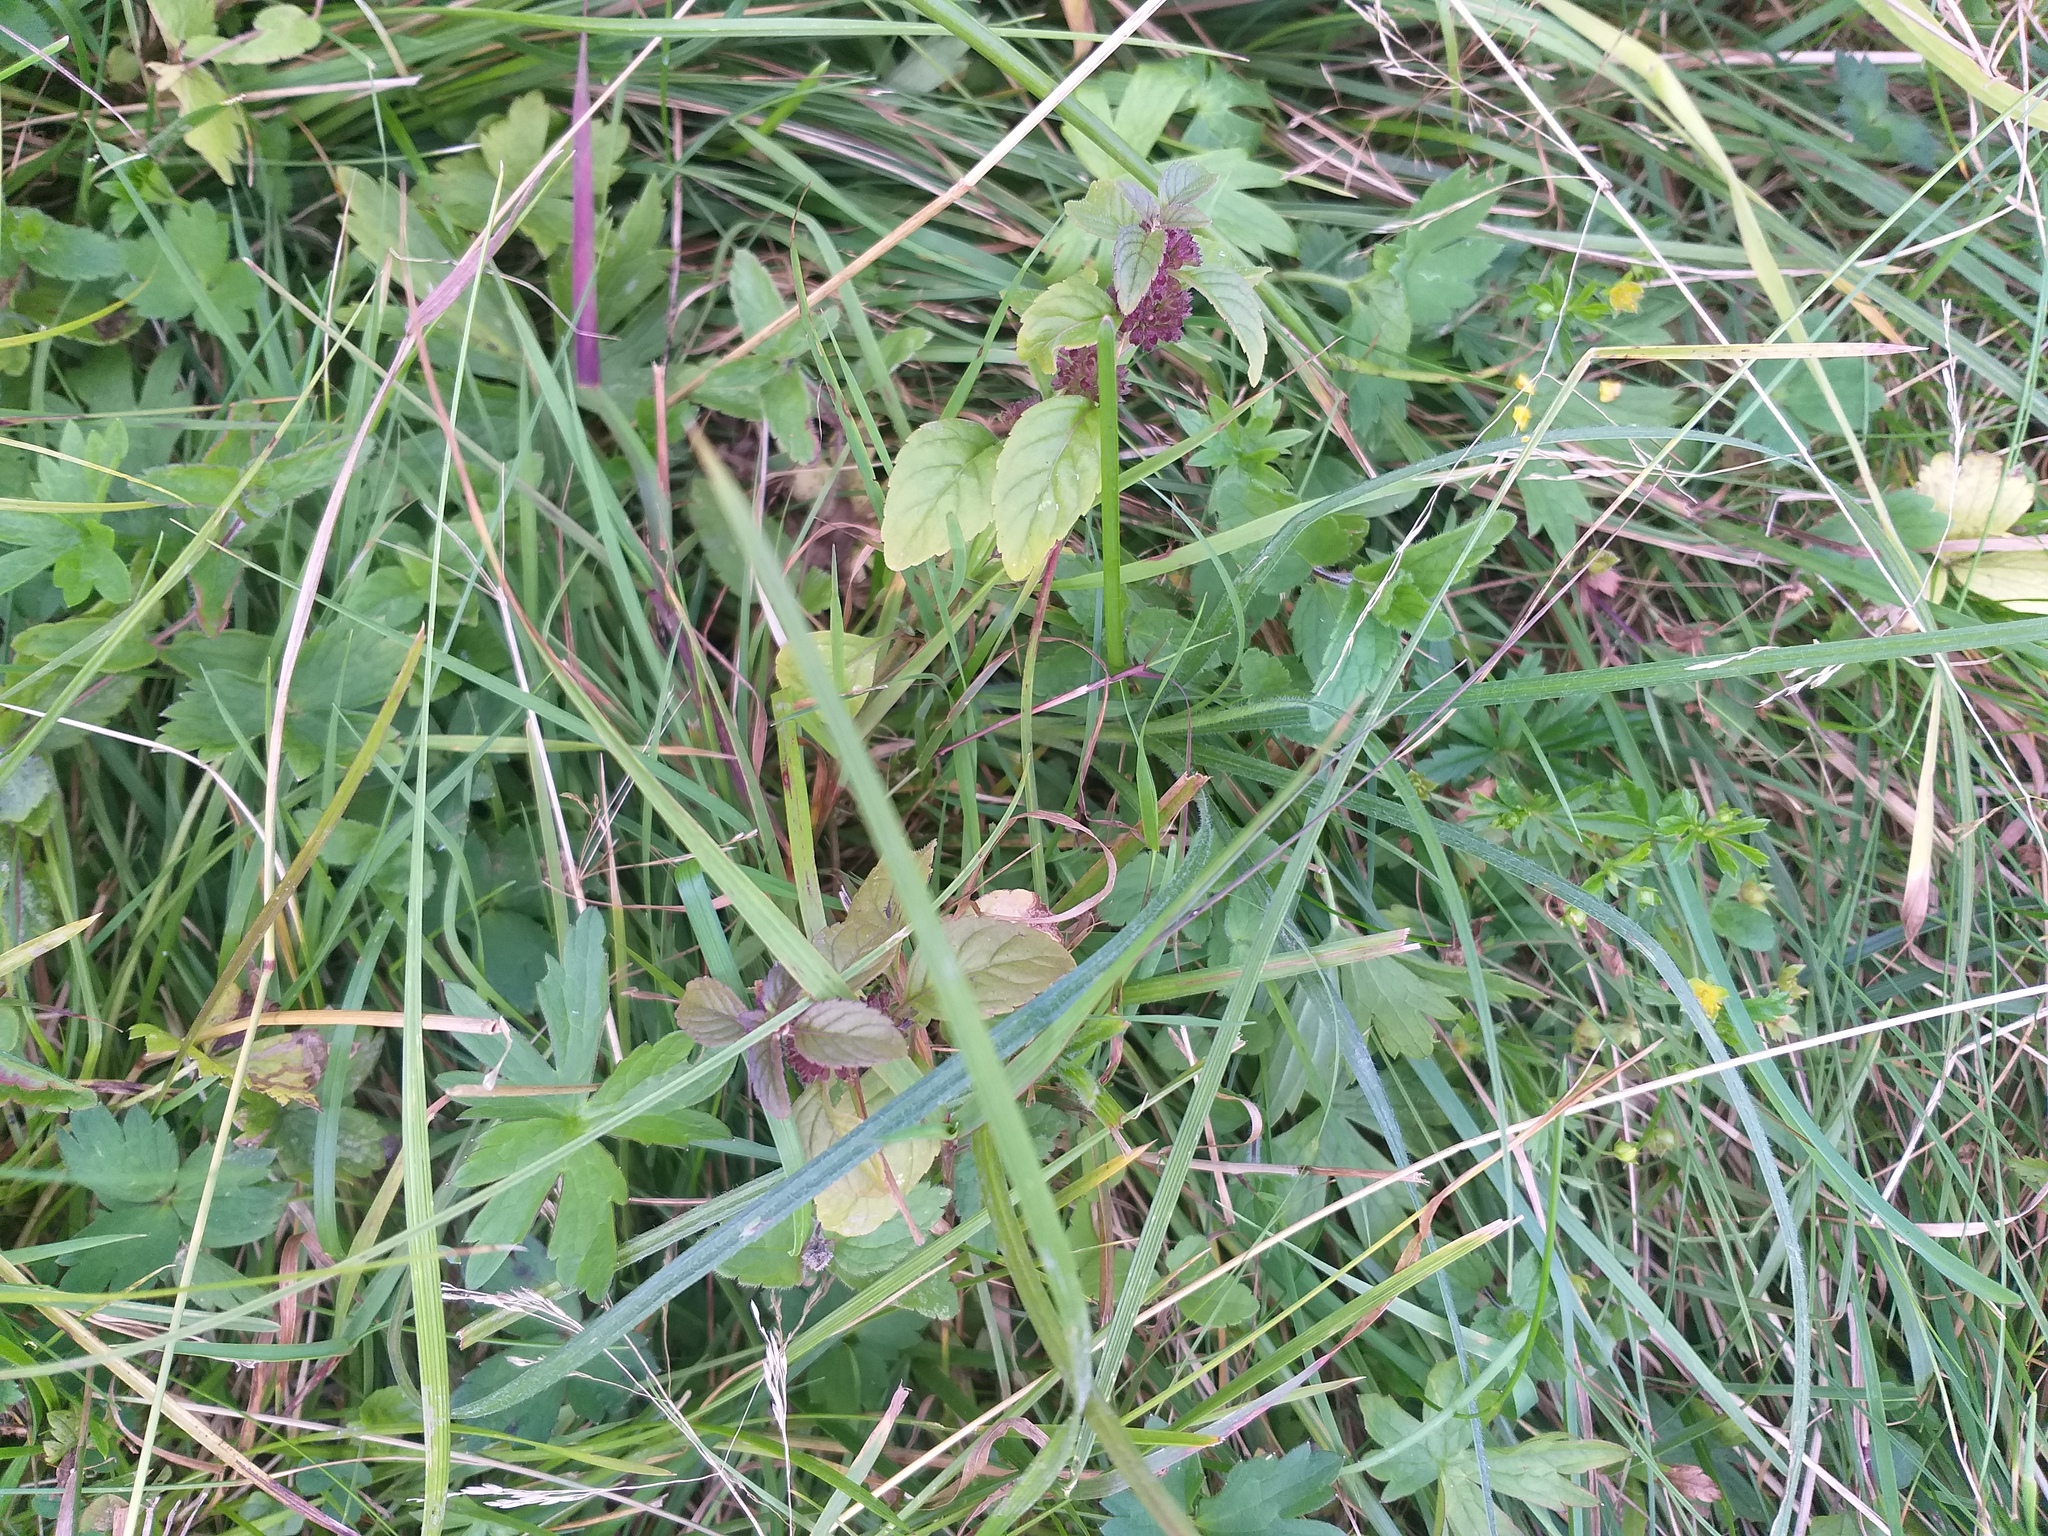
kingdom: Plantae
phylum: Tracheophyta
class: Magnoliopsida
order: Lamiales
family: Lamiaceae
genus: Mentha
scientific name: Mentha arvensis
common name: Corn mint
